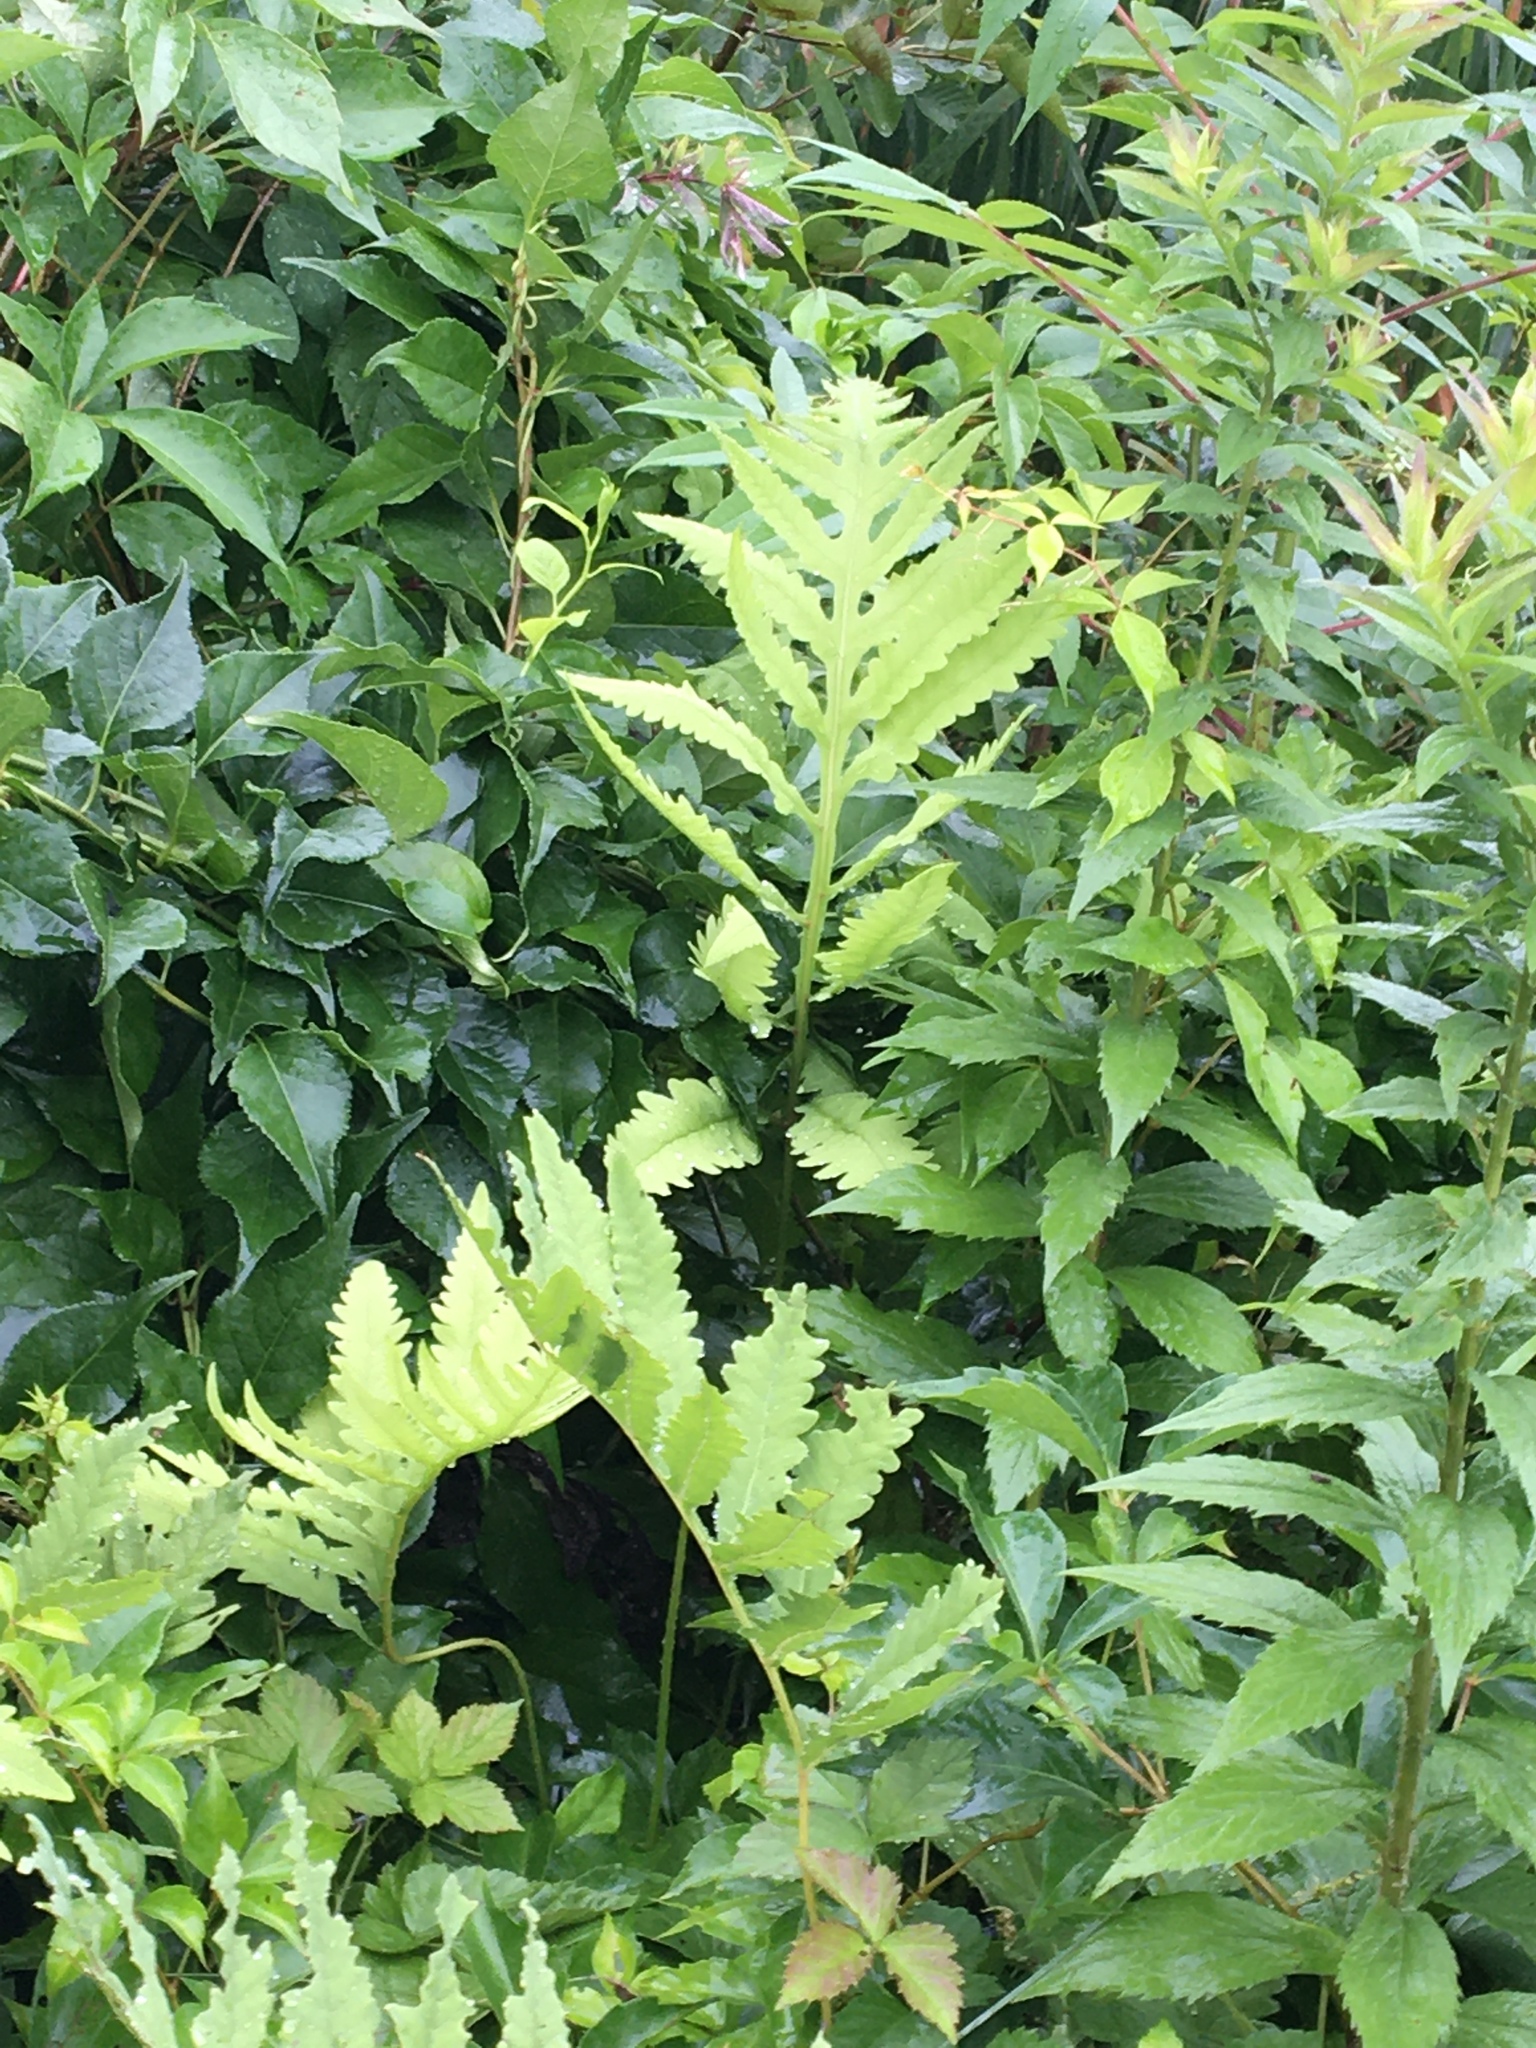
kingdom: Plantae
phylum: Tracheophyta
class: Polypodiopsida
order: Polypodiales
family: Onocleaceae
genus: Onoclea
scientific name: Onoclea sensibilis
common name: Sensitive fern
